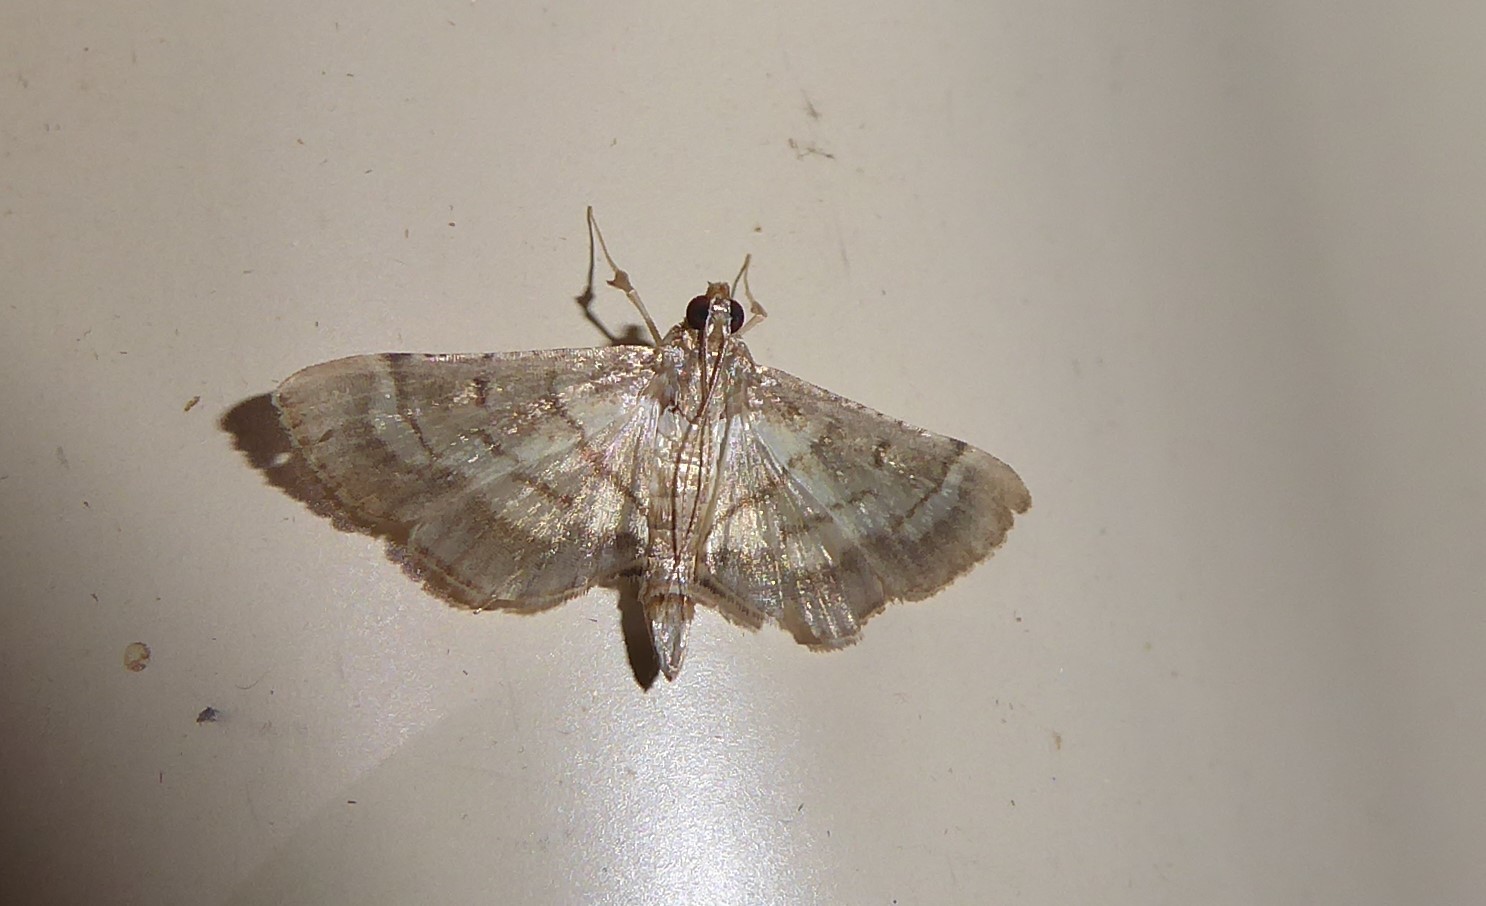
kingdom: Animalia
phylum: Arthropoda
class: Insecta
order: Lepidoptera
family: Crambidae
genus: Cnaphalocrocis
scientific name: Cnaphalocrocis poeyalis
